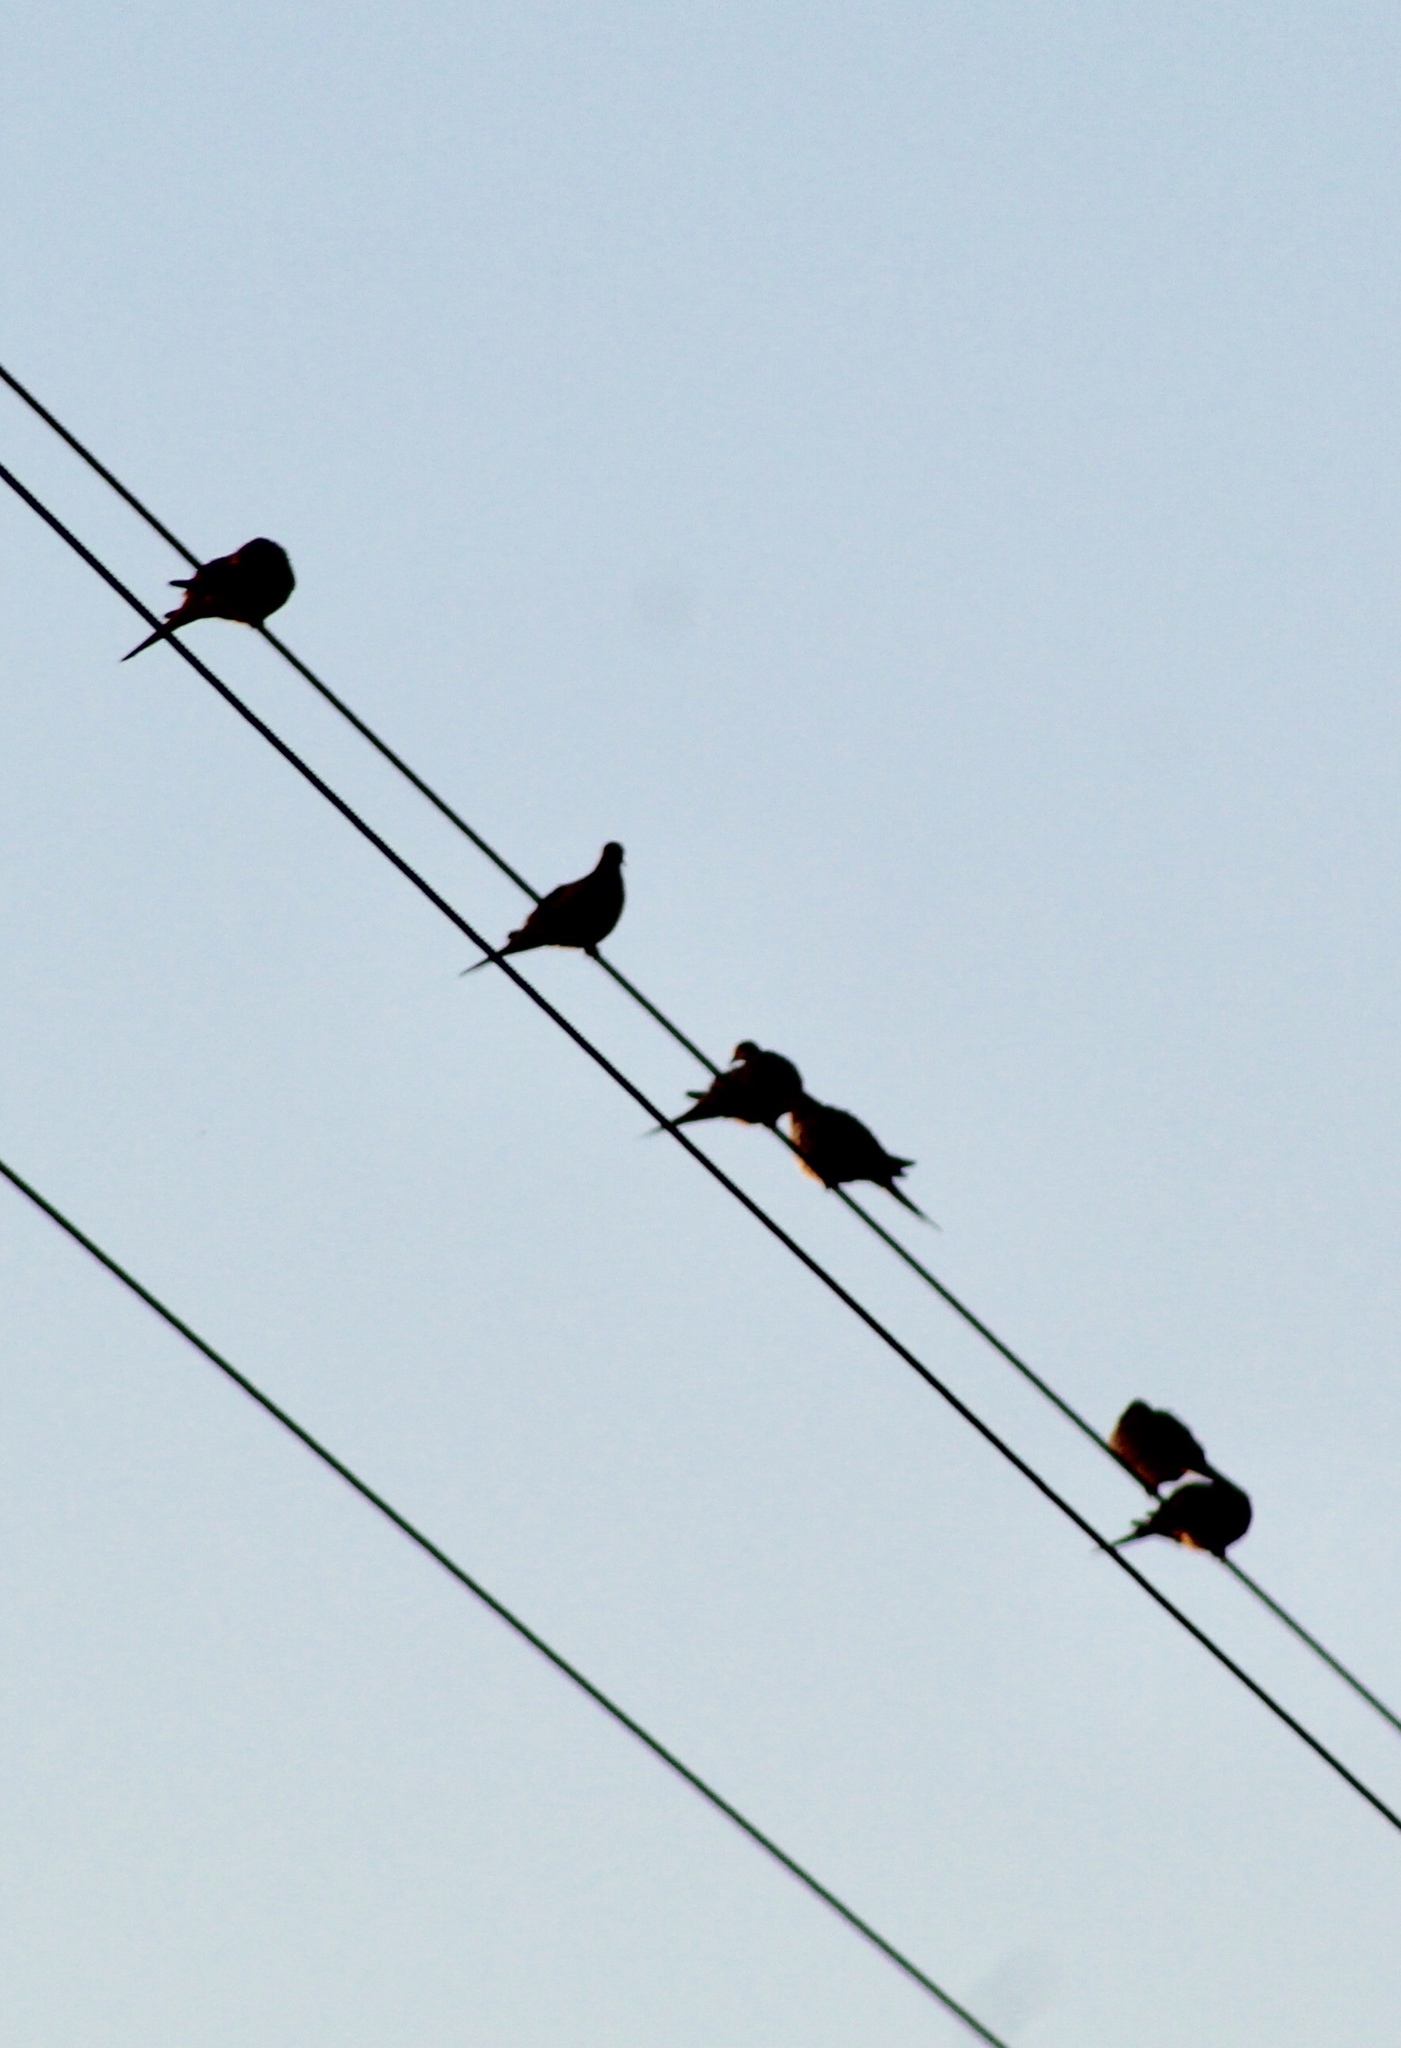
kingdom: Animalia
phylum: Chordata
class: Aves
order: Columbiformes
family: Columbidae
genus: Zenaida
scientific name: Zenaida macroura
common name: Mourning dove
